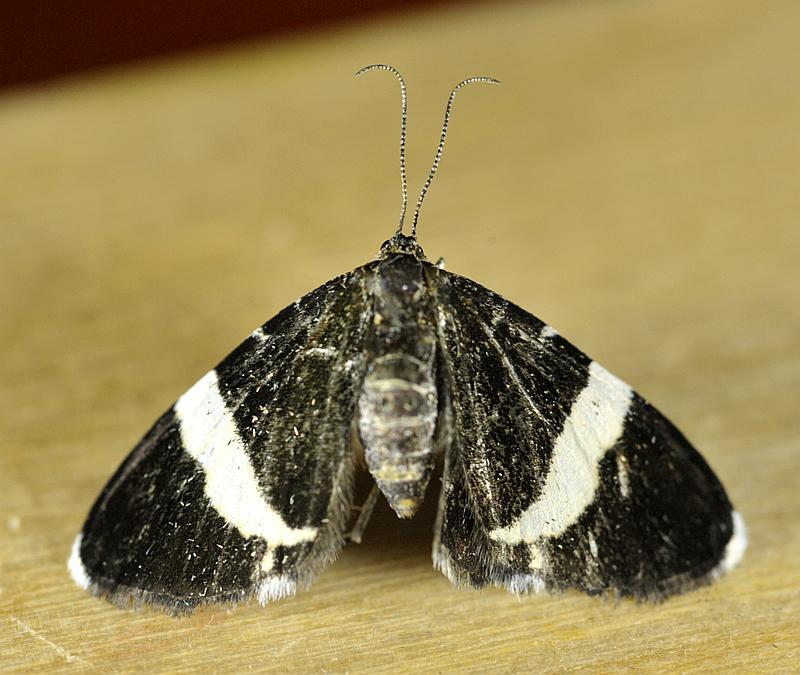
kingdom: Animalia
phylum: Arthropoda
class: Insecta
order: Lepidoptera
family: Geometridae
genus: Trichodezia
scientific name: Trichodezia albovittata
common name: White striped black
